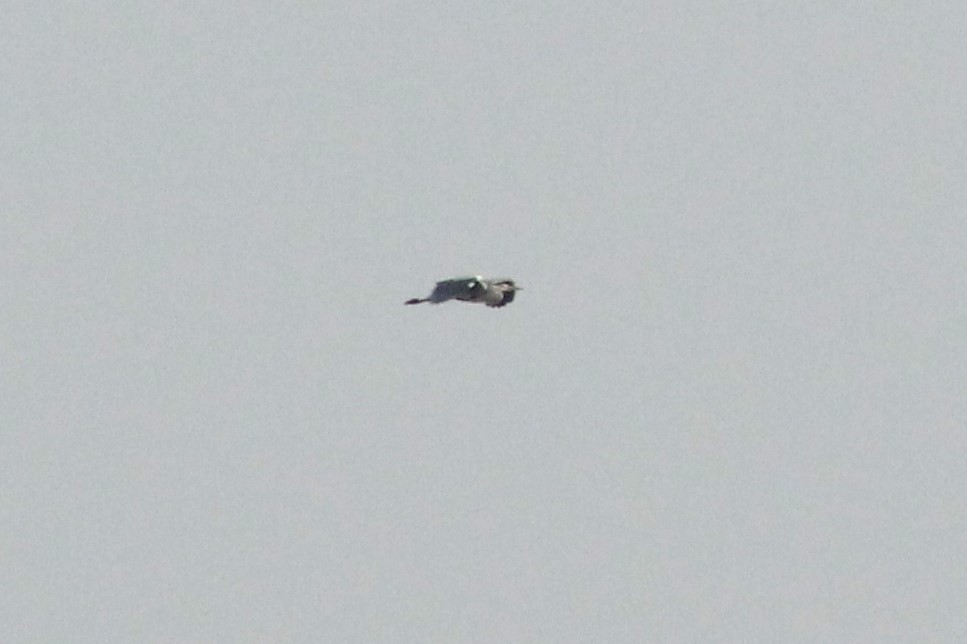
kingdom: Animalia
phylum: Chordata
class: Aves
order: Pelecaniformes
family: Ardeidae
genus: Ardea
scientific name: Ardea cinerea
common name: Grey heron
